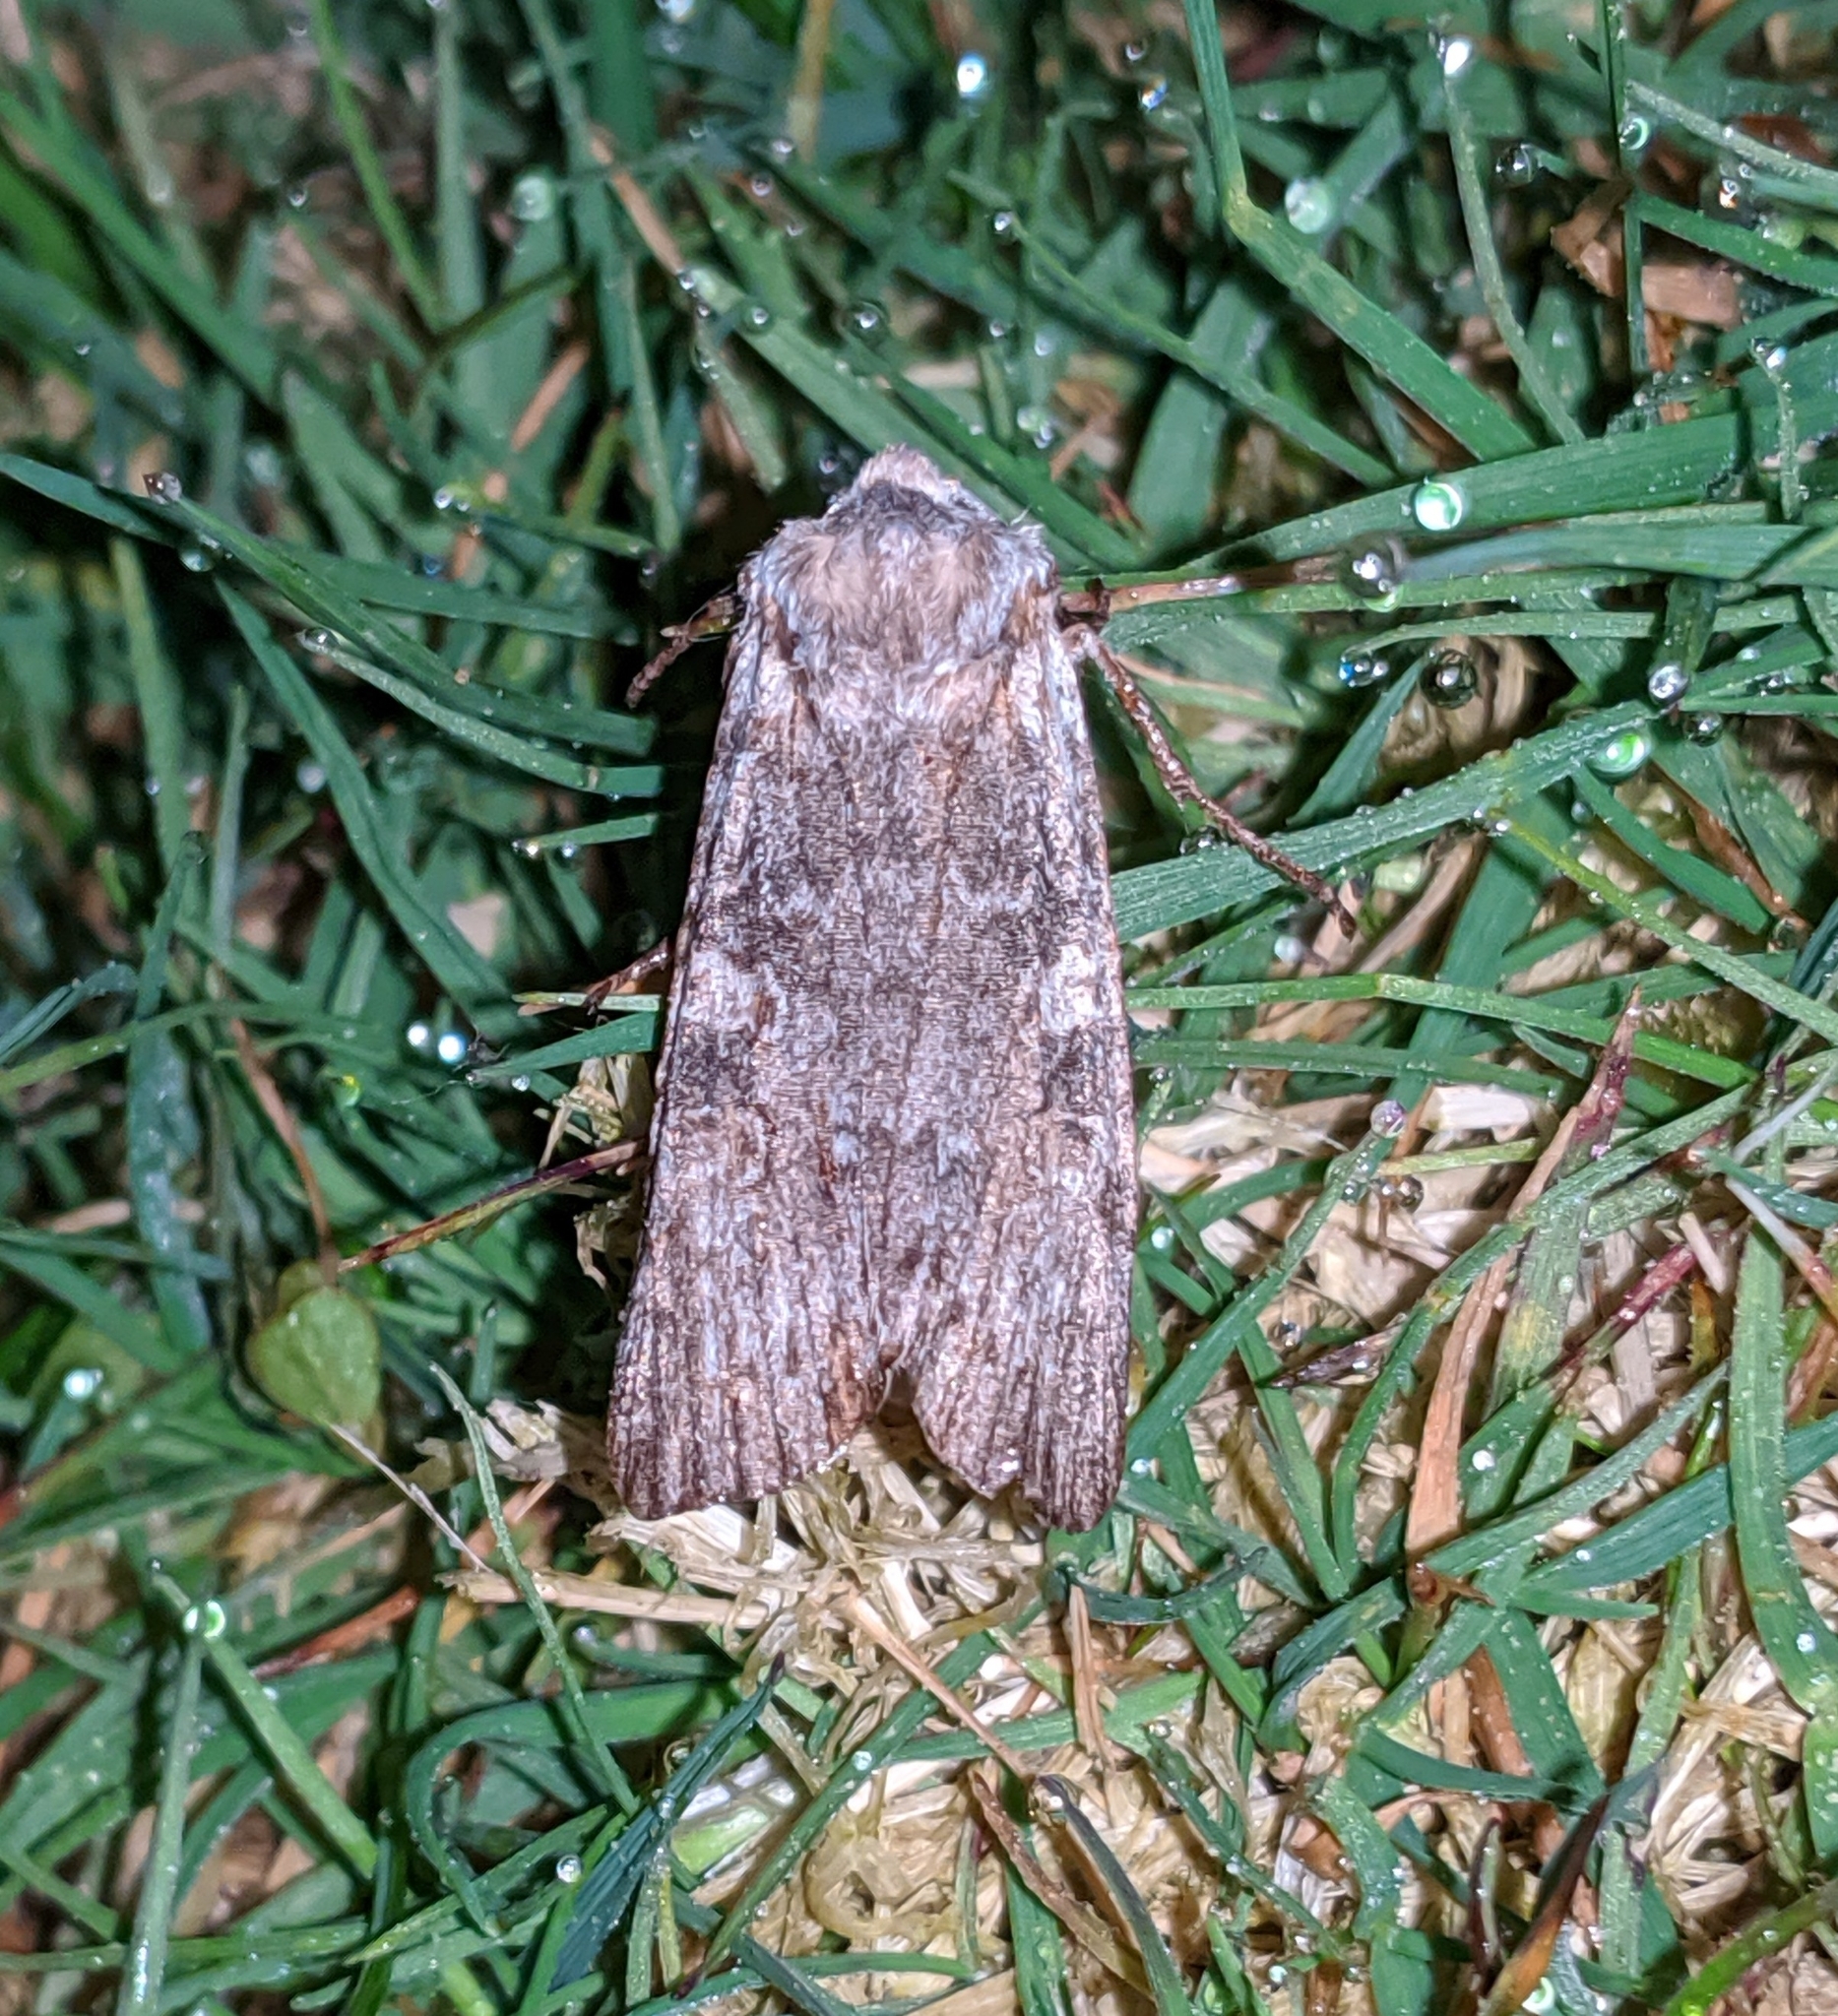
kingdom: Animalia
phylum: Arthropoda
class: Insecta
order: Lepidoptera
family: Noctuidae
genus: Lithophane
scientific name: Lithophane pertorrida
